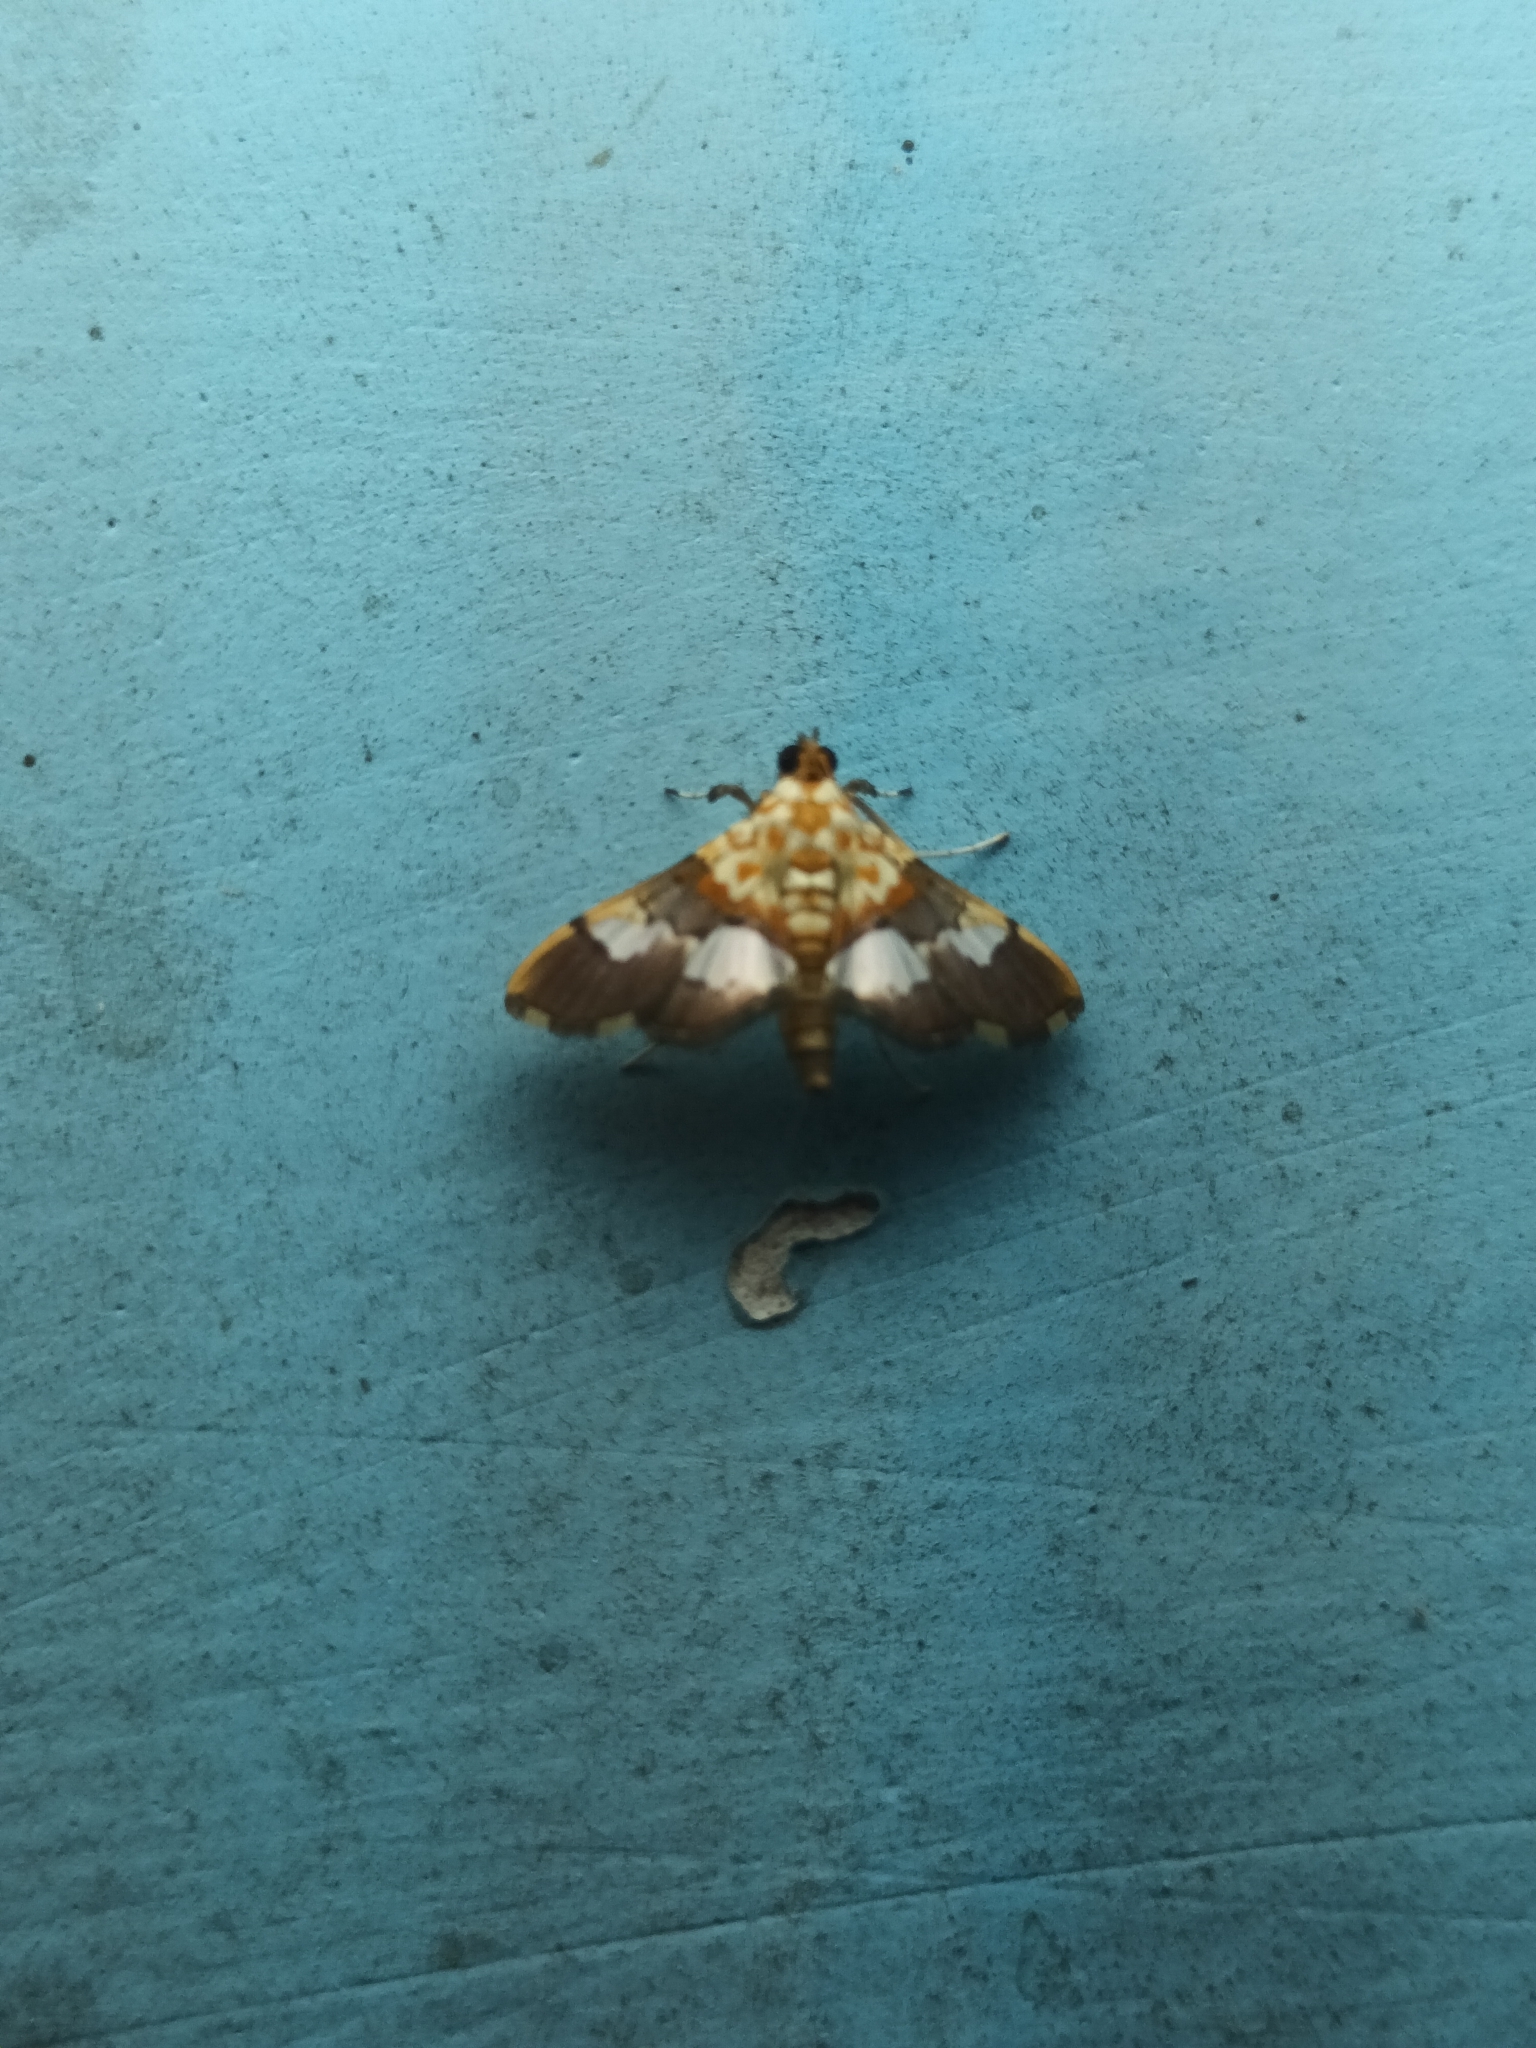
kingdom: Animalia
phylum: Arthropoda
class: Insecta
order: Lepidoptera
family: Crambidae
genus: Aetholix
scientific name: Aetholix flavibasalis
